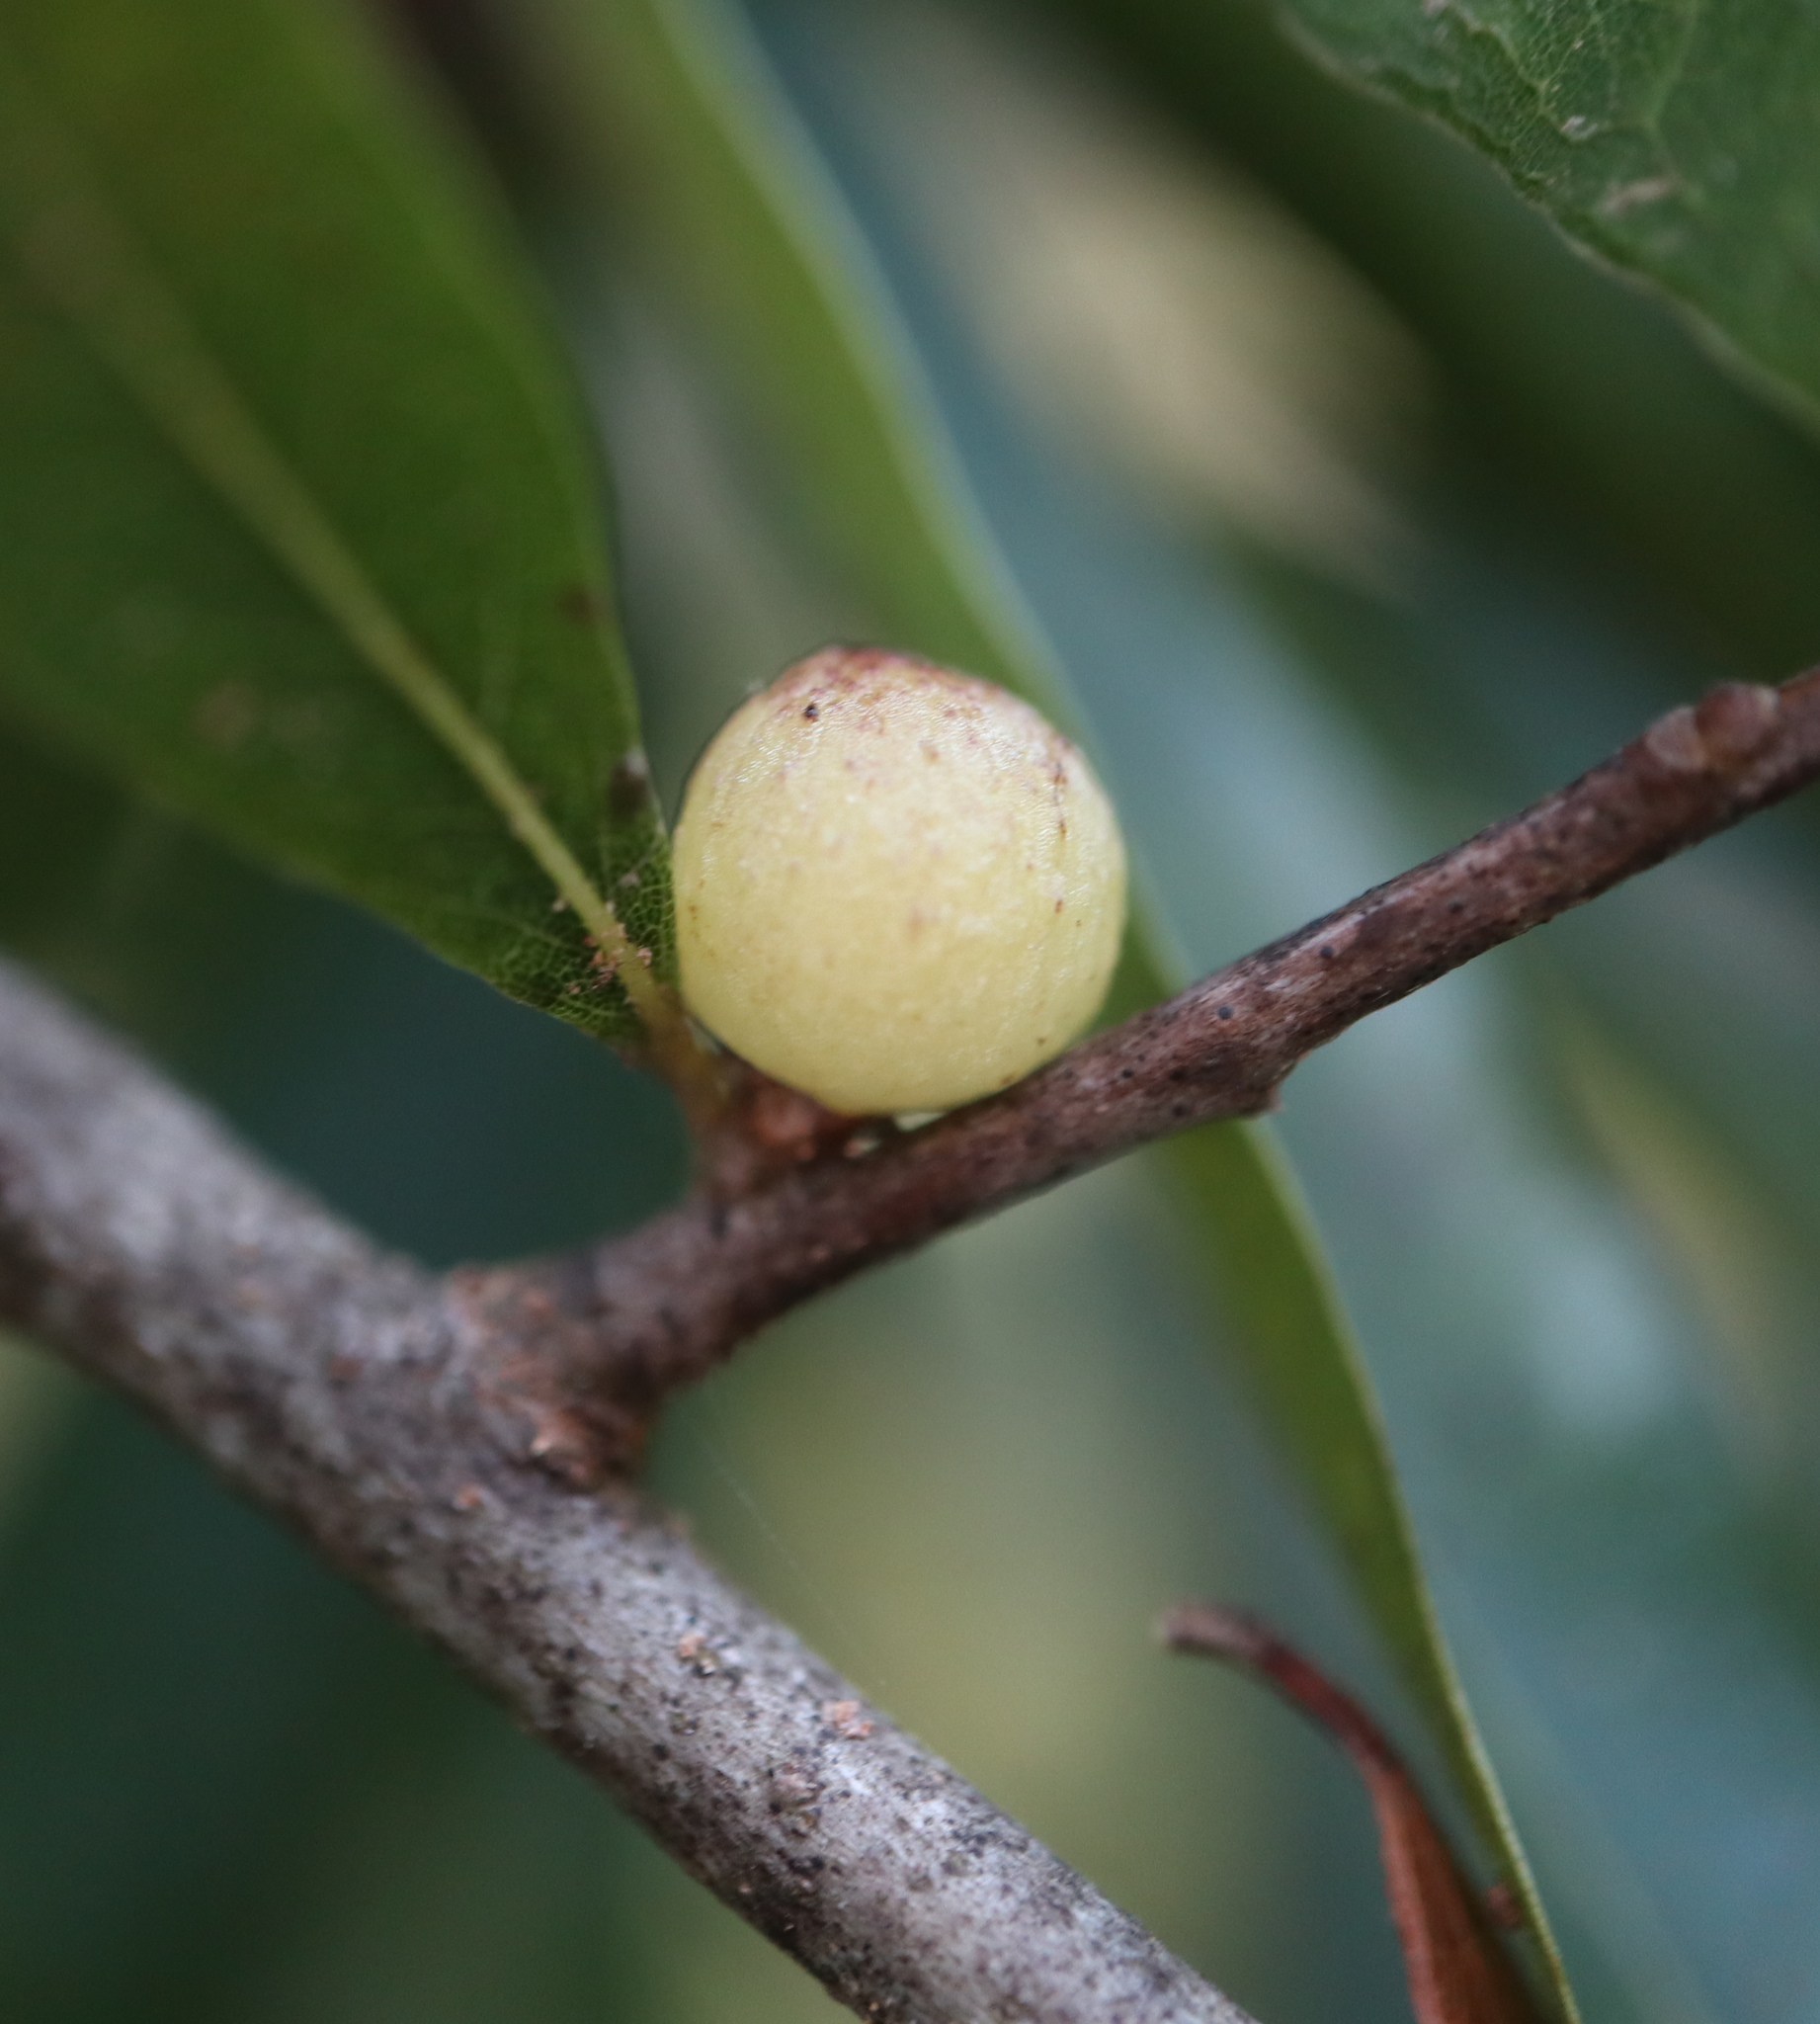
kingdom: Animalia
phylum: Arthropoda
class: Insecta
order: Hymenoptera
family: Cynipidae
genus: Callirhytis
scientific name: Callirhytis
